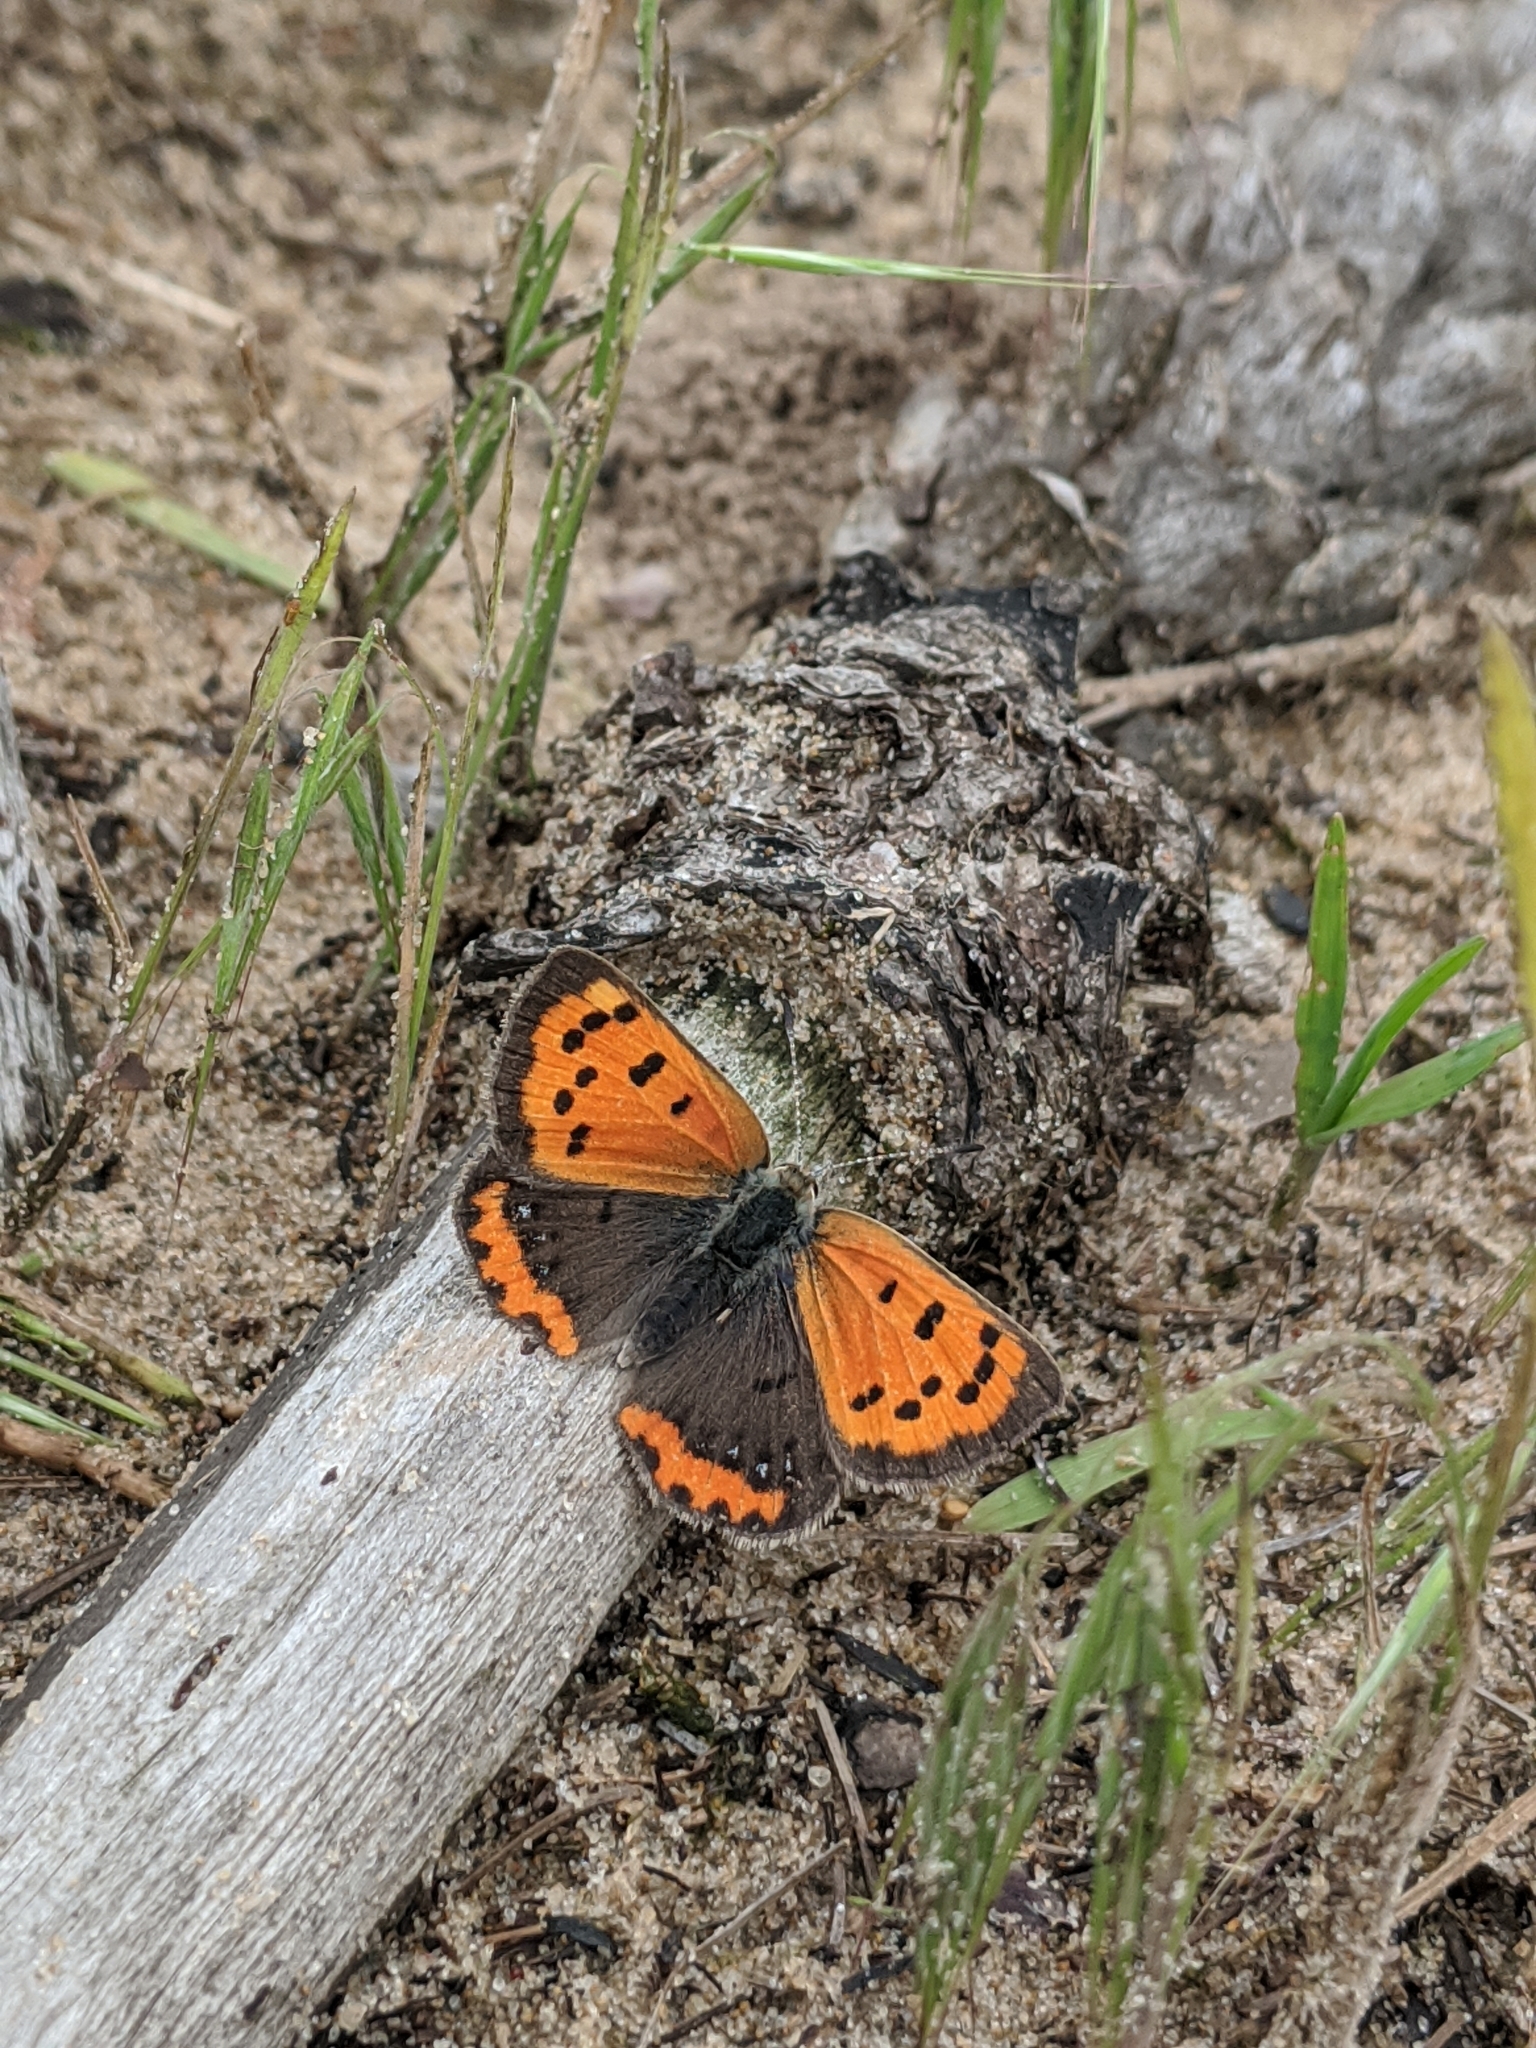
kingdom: Animalia
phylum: Arthropoda
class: Insecta
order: Lepidoptera
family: Lycaenidae
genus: Lycaena
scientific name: Lycaena hypophlaeas
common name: American copper
